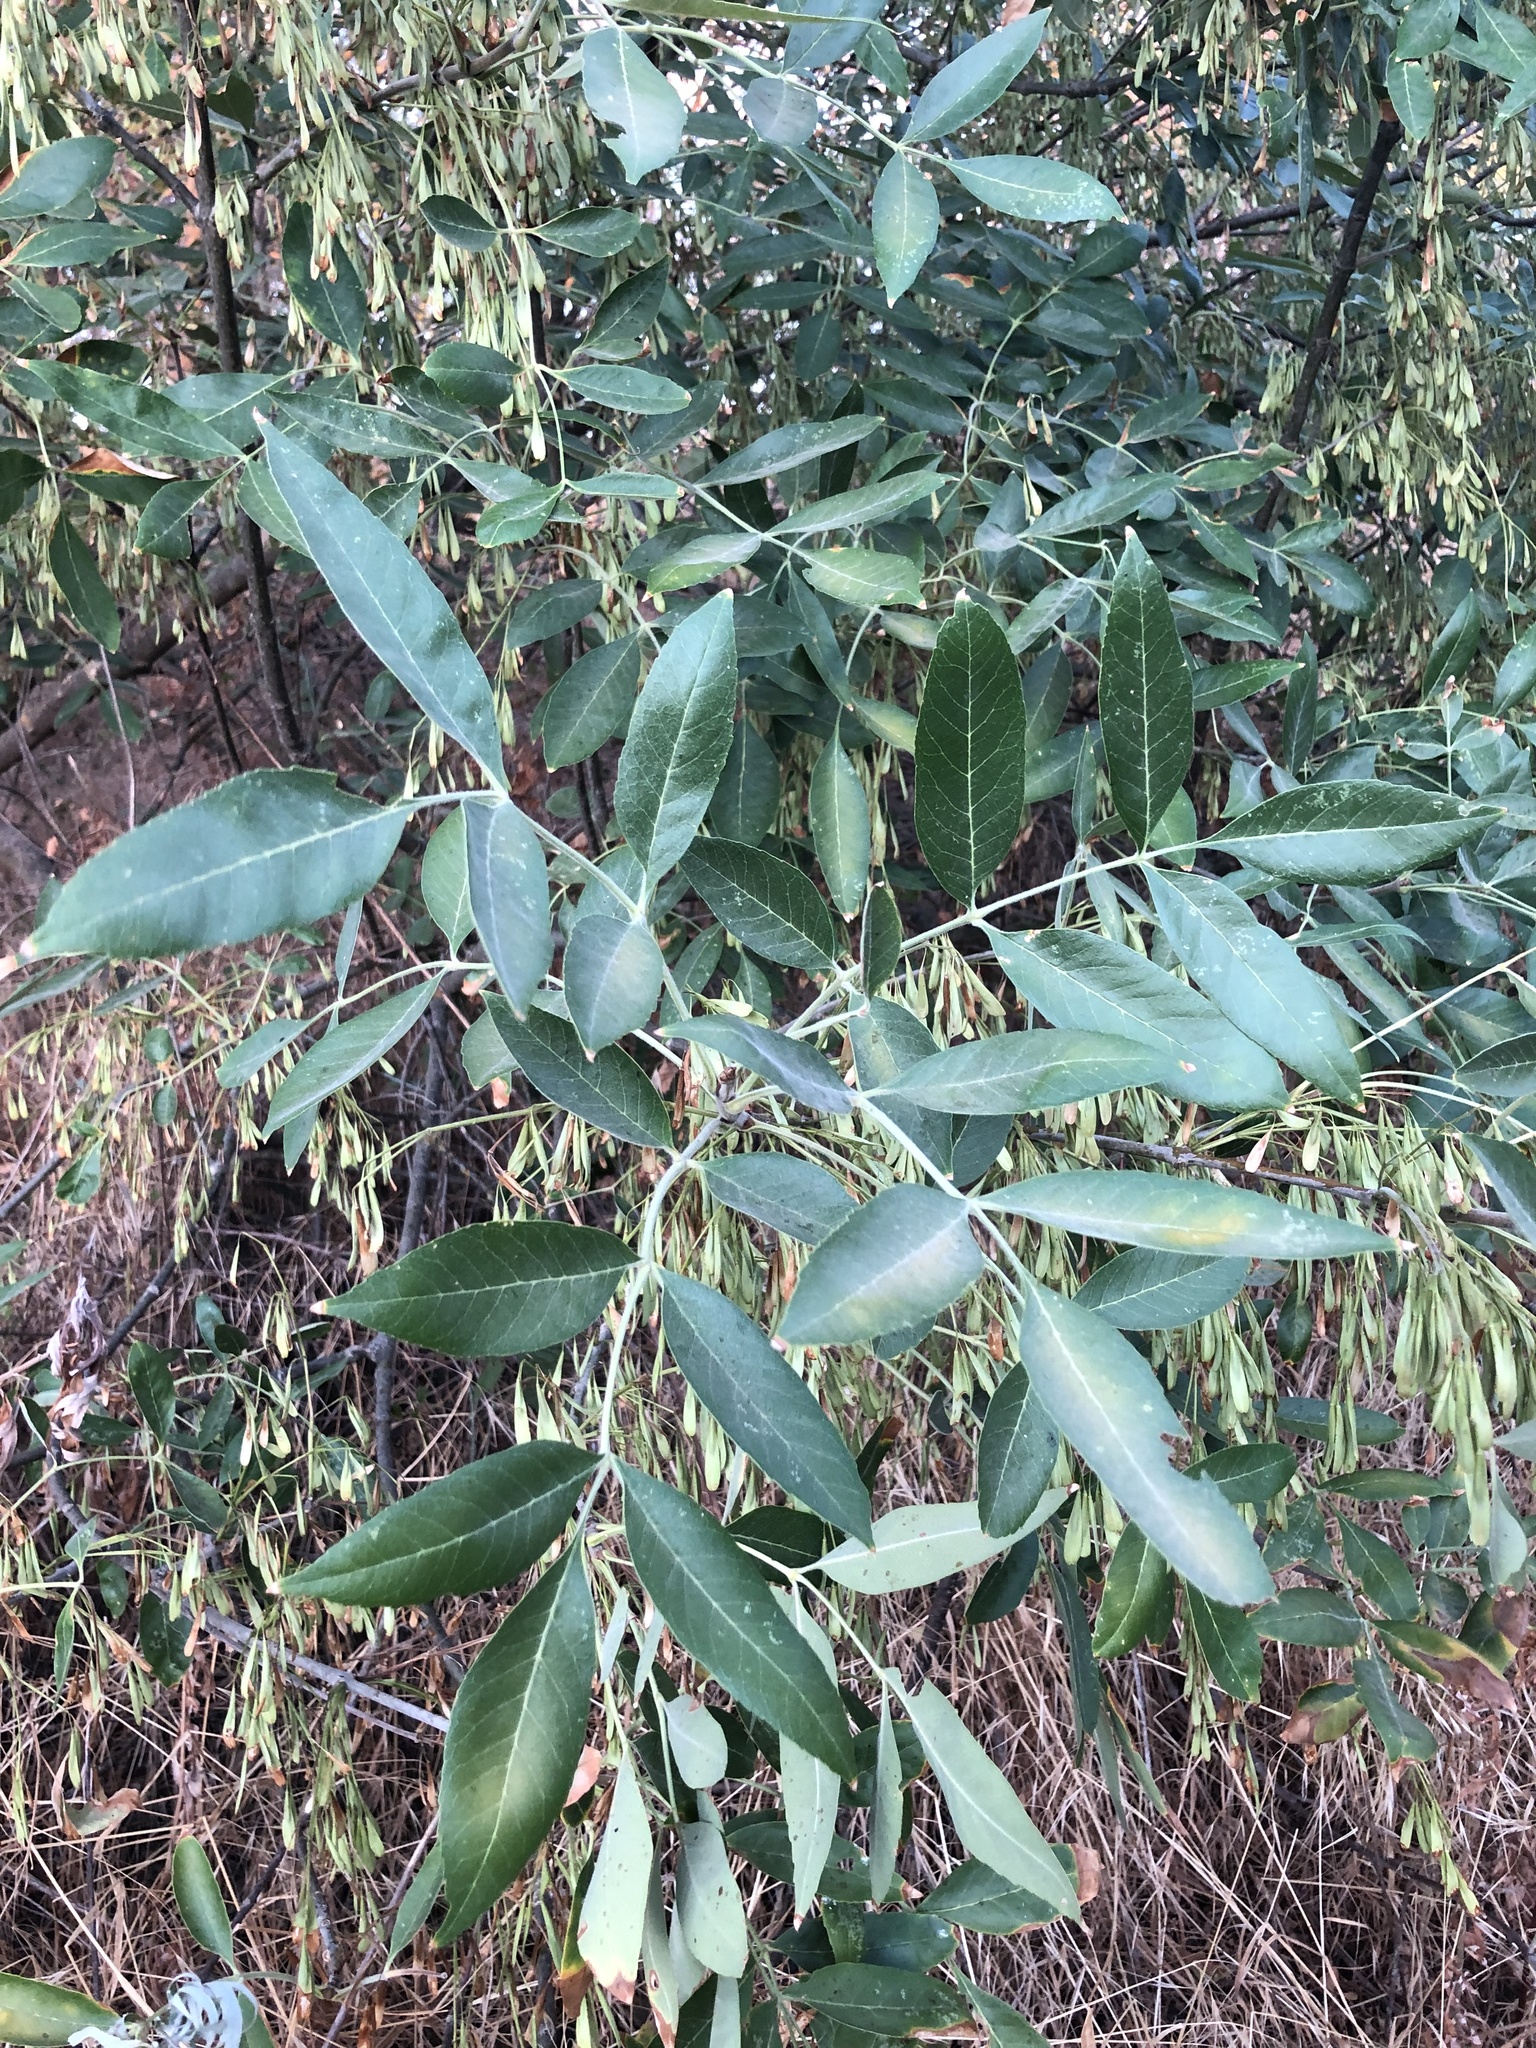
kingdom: Plantae
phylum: Tracheophyta
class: Magnoliopsida
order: Lamiales
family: Oleaceae
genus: Fraxinus
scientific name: Fraxinus latifolia
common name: Oregon ash
